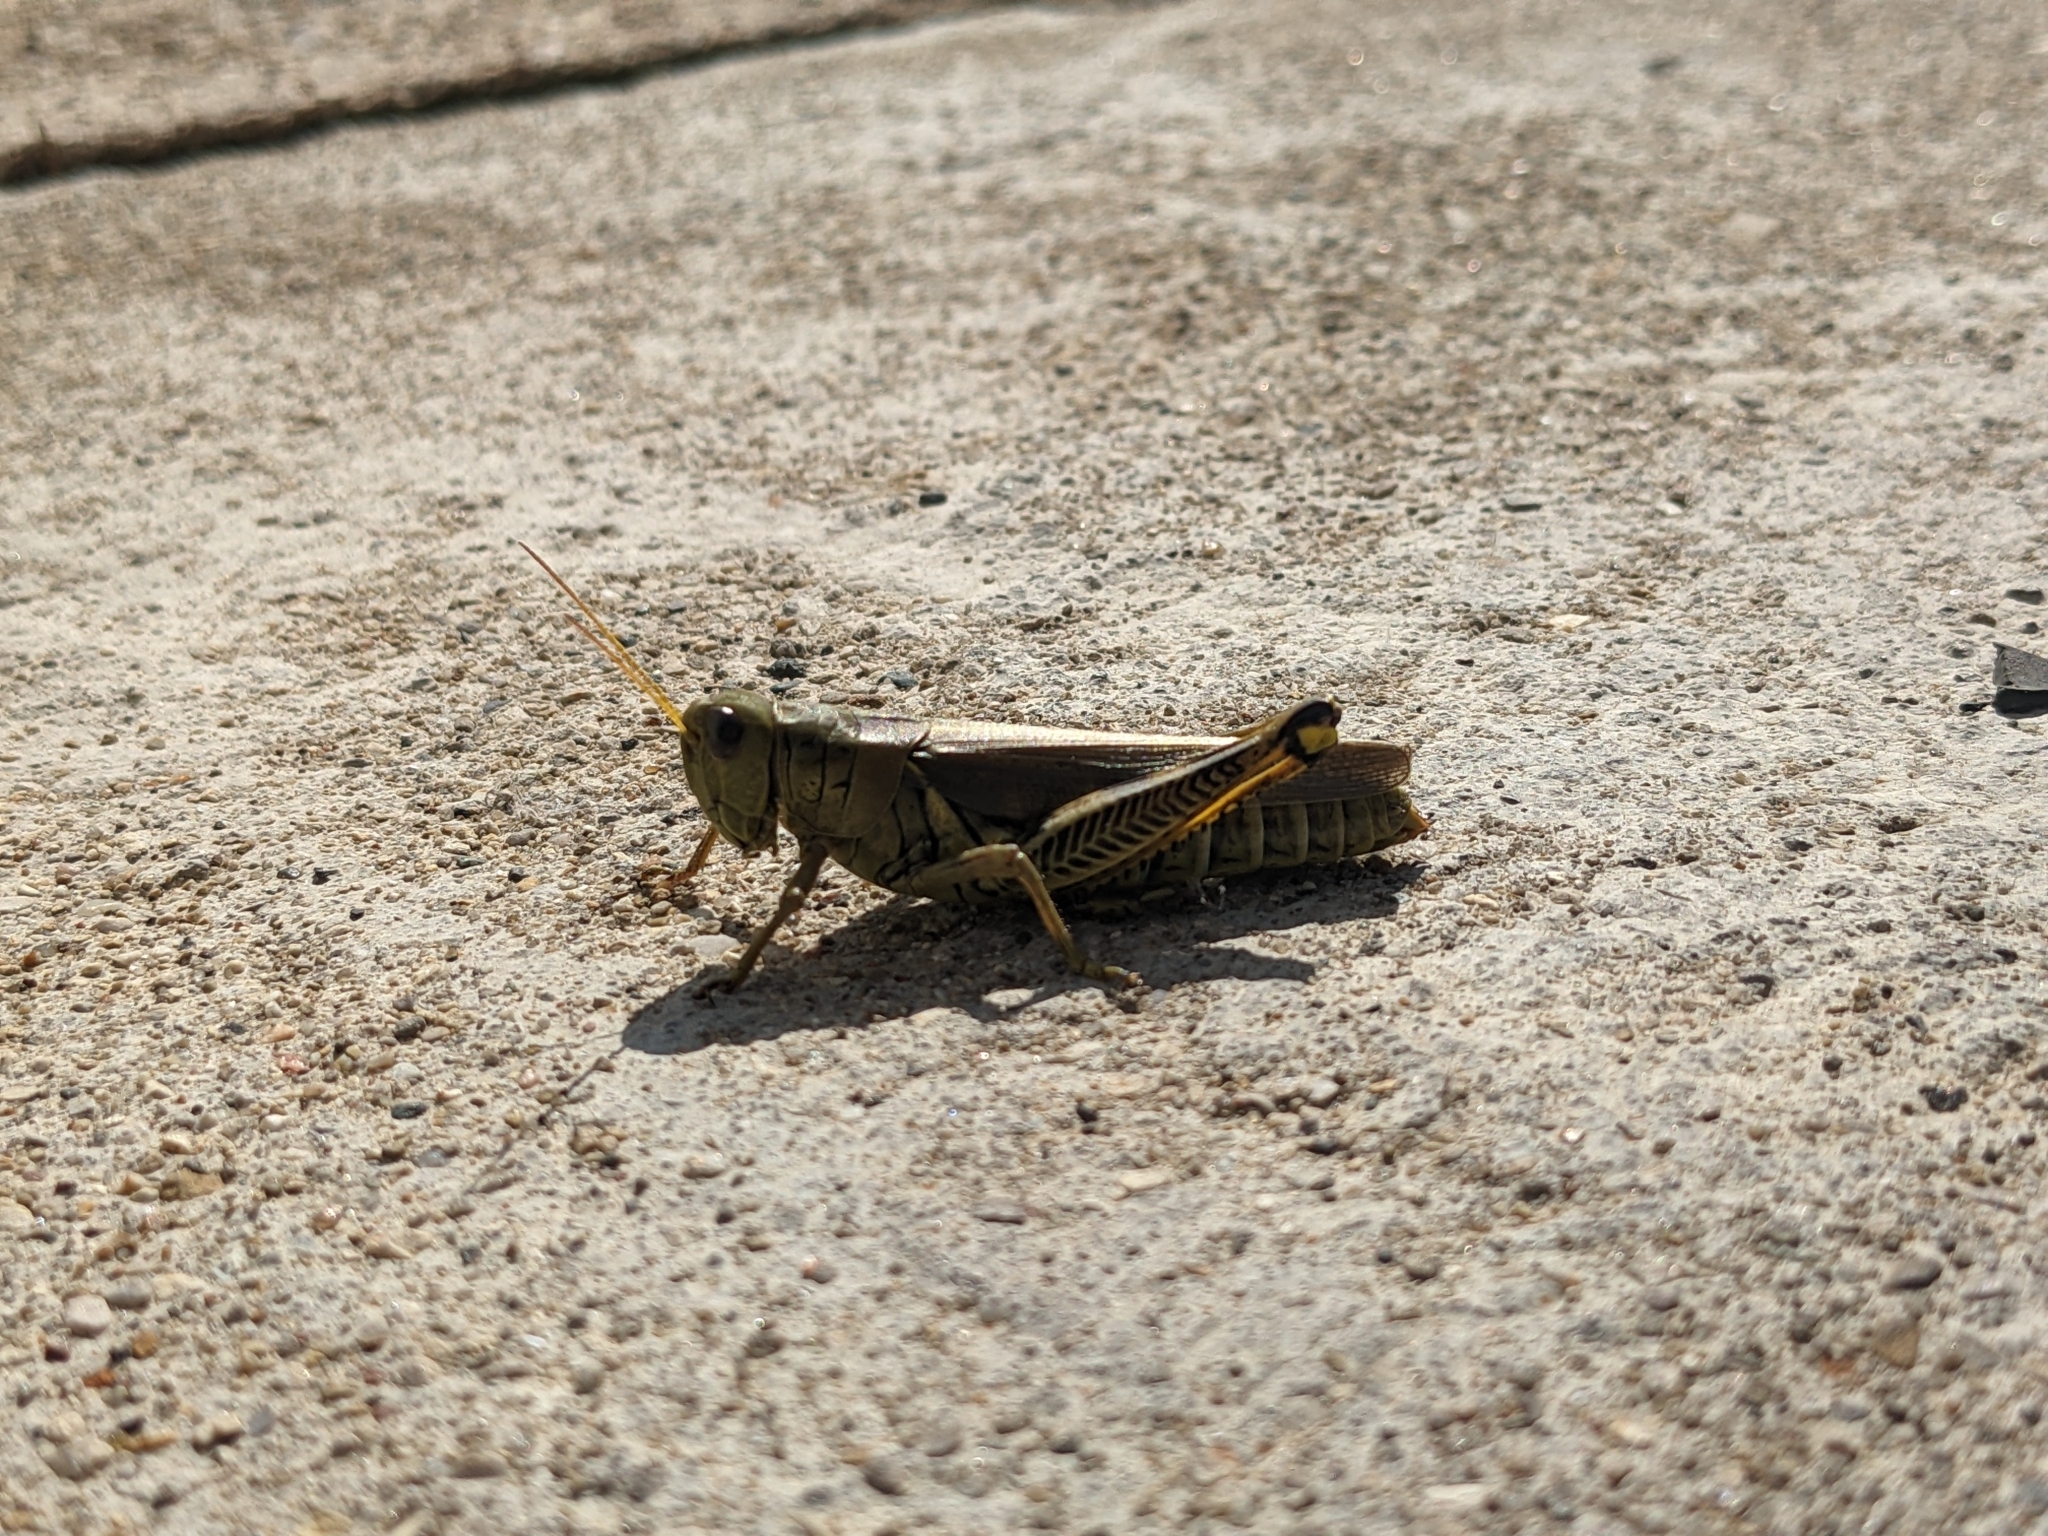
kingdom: Animalia
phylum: Arthropoda
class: Insecta
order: Orthoptera
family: Acrididae
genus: Melanoplus
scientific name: Melanoplus differentialis
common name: Differential grasshopper
